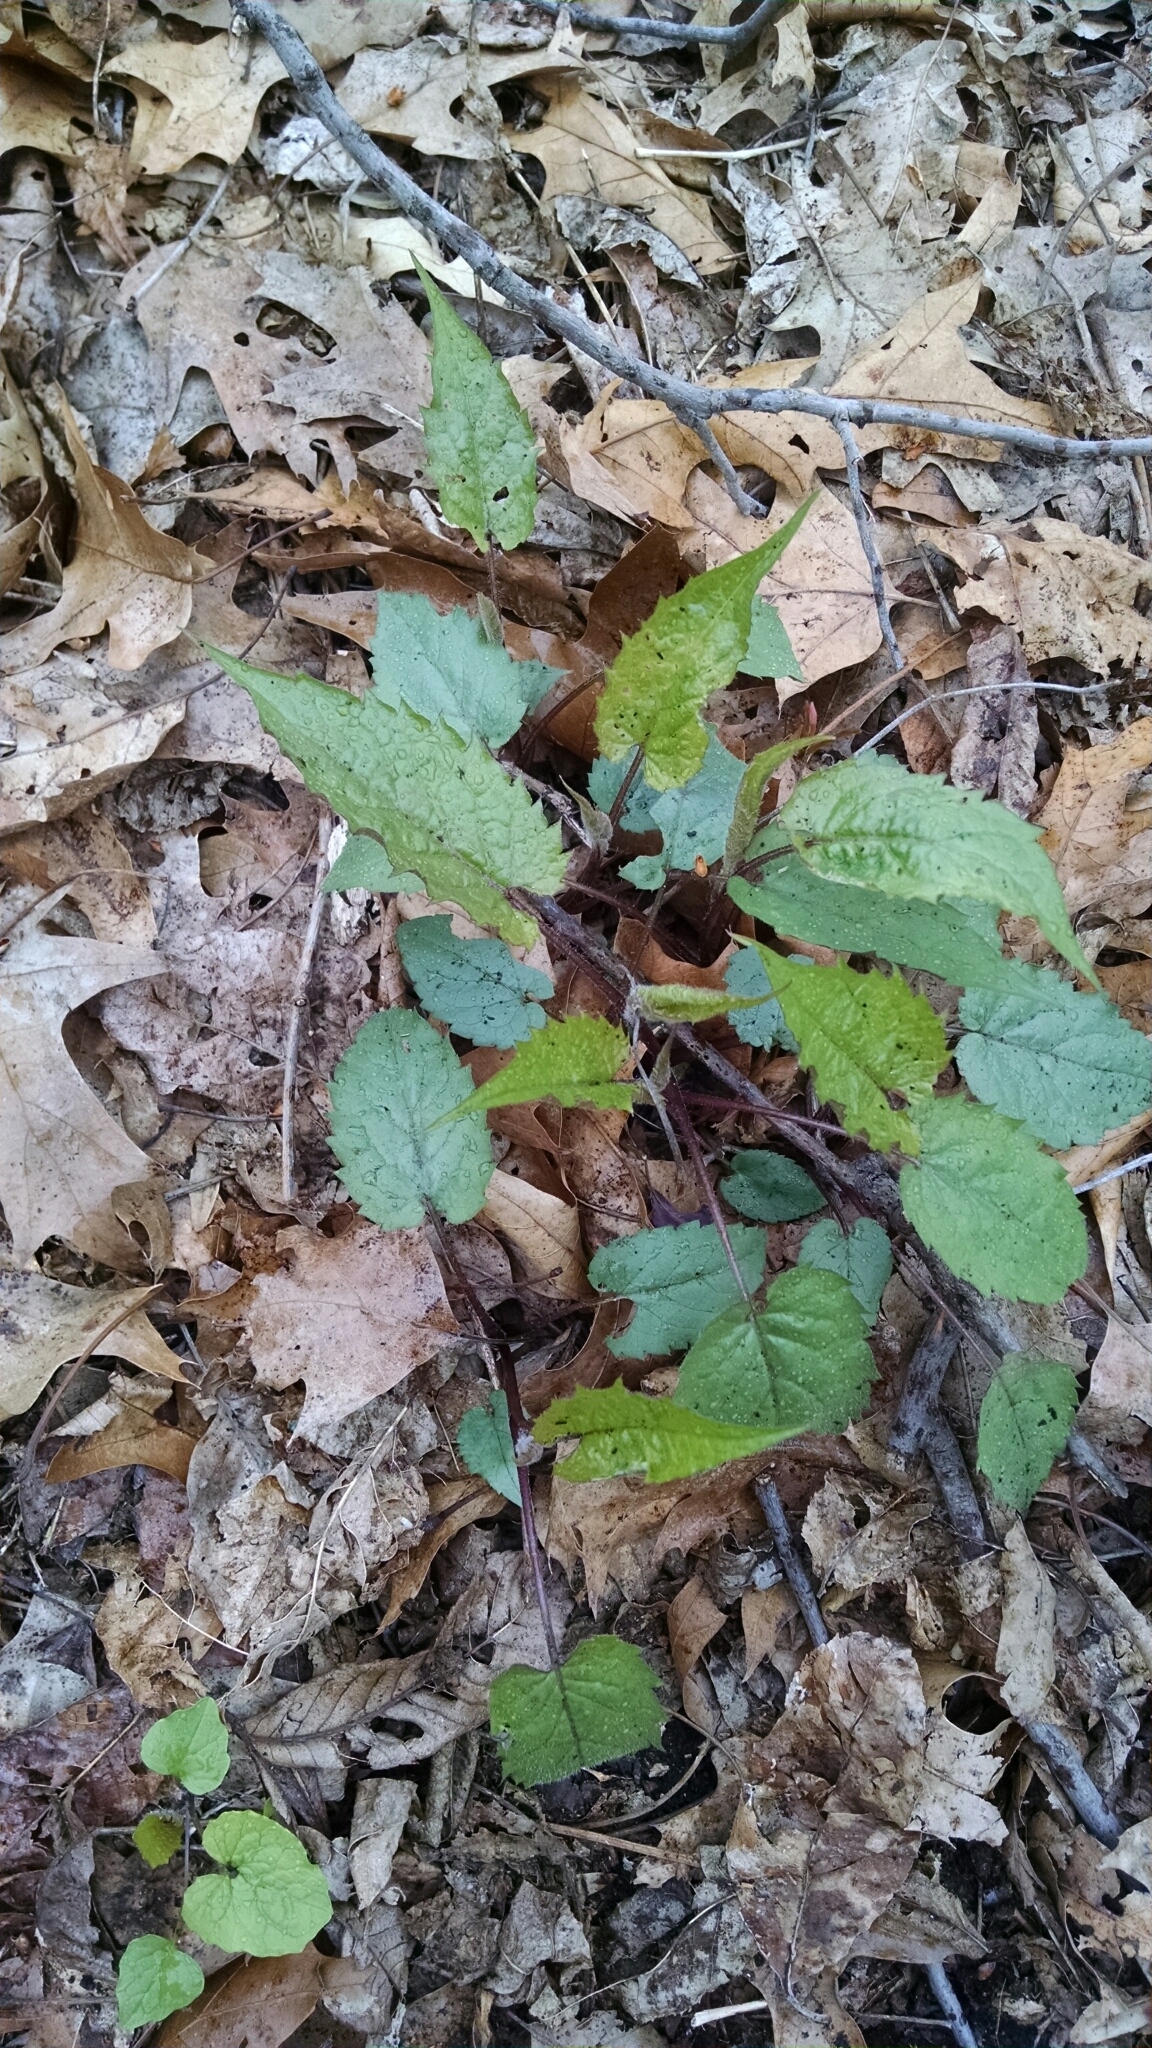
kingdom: Plantae
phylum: Tracheophyta
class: Magnoliopsida
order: Asterales
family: Asteraceae
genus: Eurybia
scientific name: Eurybia divaricata
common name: White wood aster
